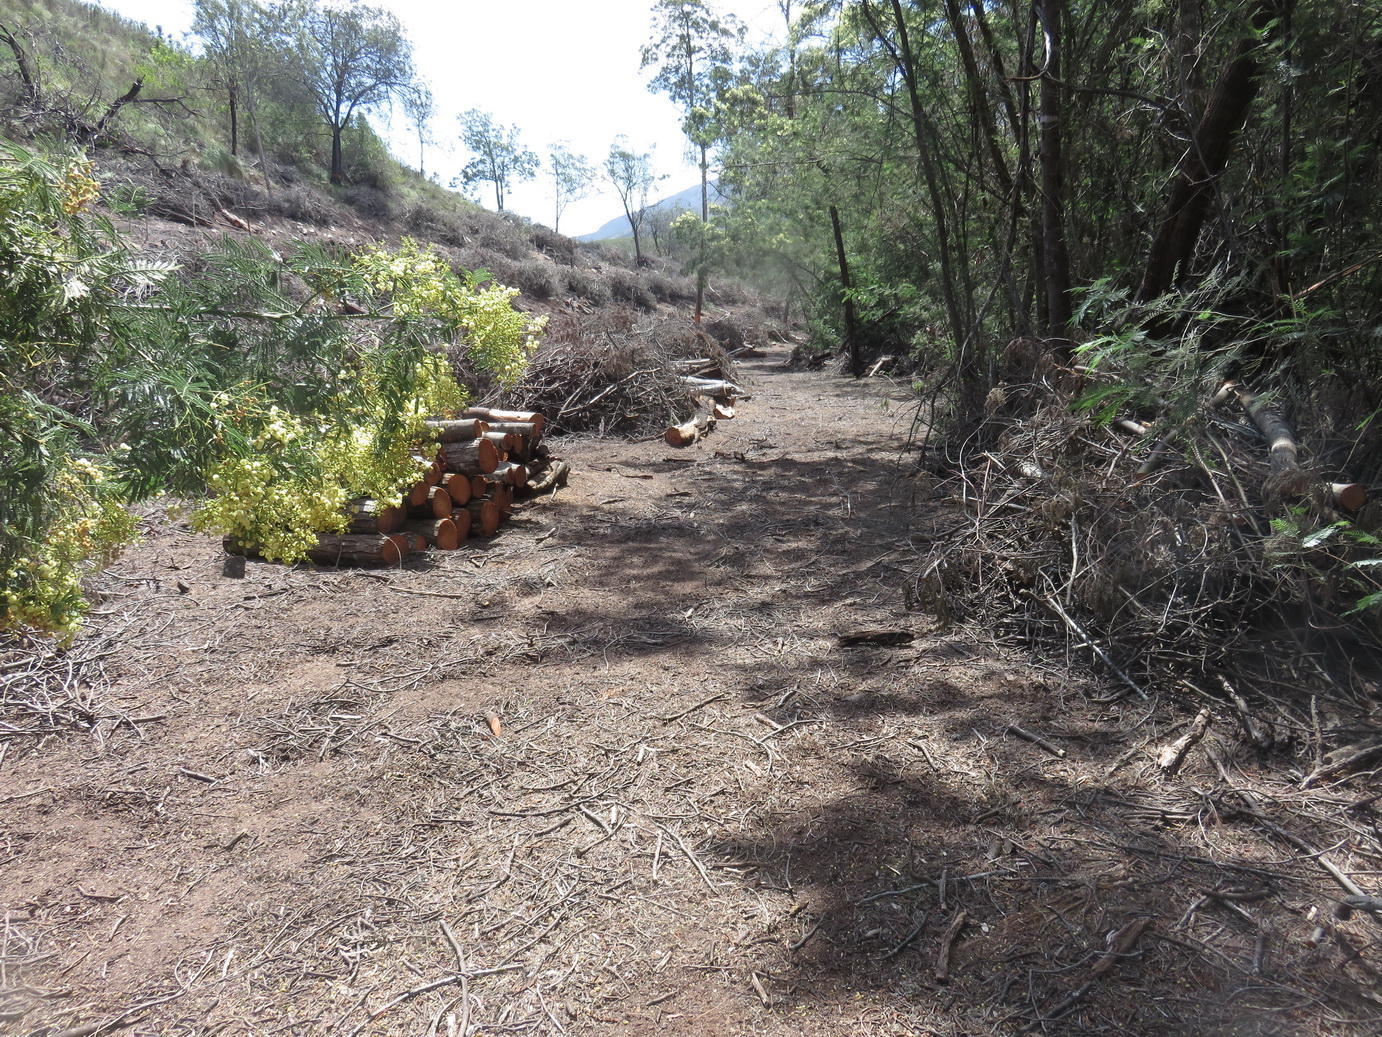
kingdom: Plantae
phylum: Tracheophyta
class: Magnoliopsida
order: Fabales
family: Fabaceae
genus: Acacia
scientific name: Acacia mearnsii
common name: Black wattle
